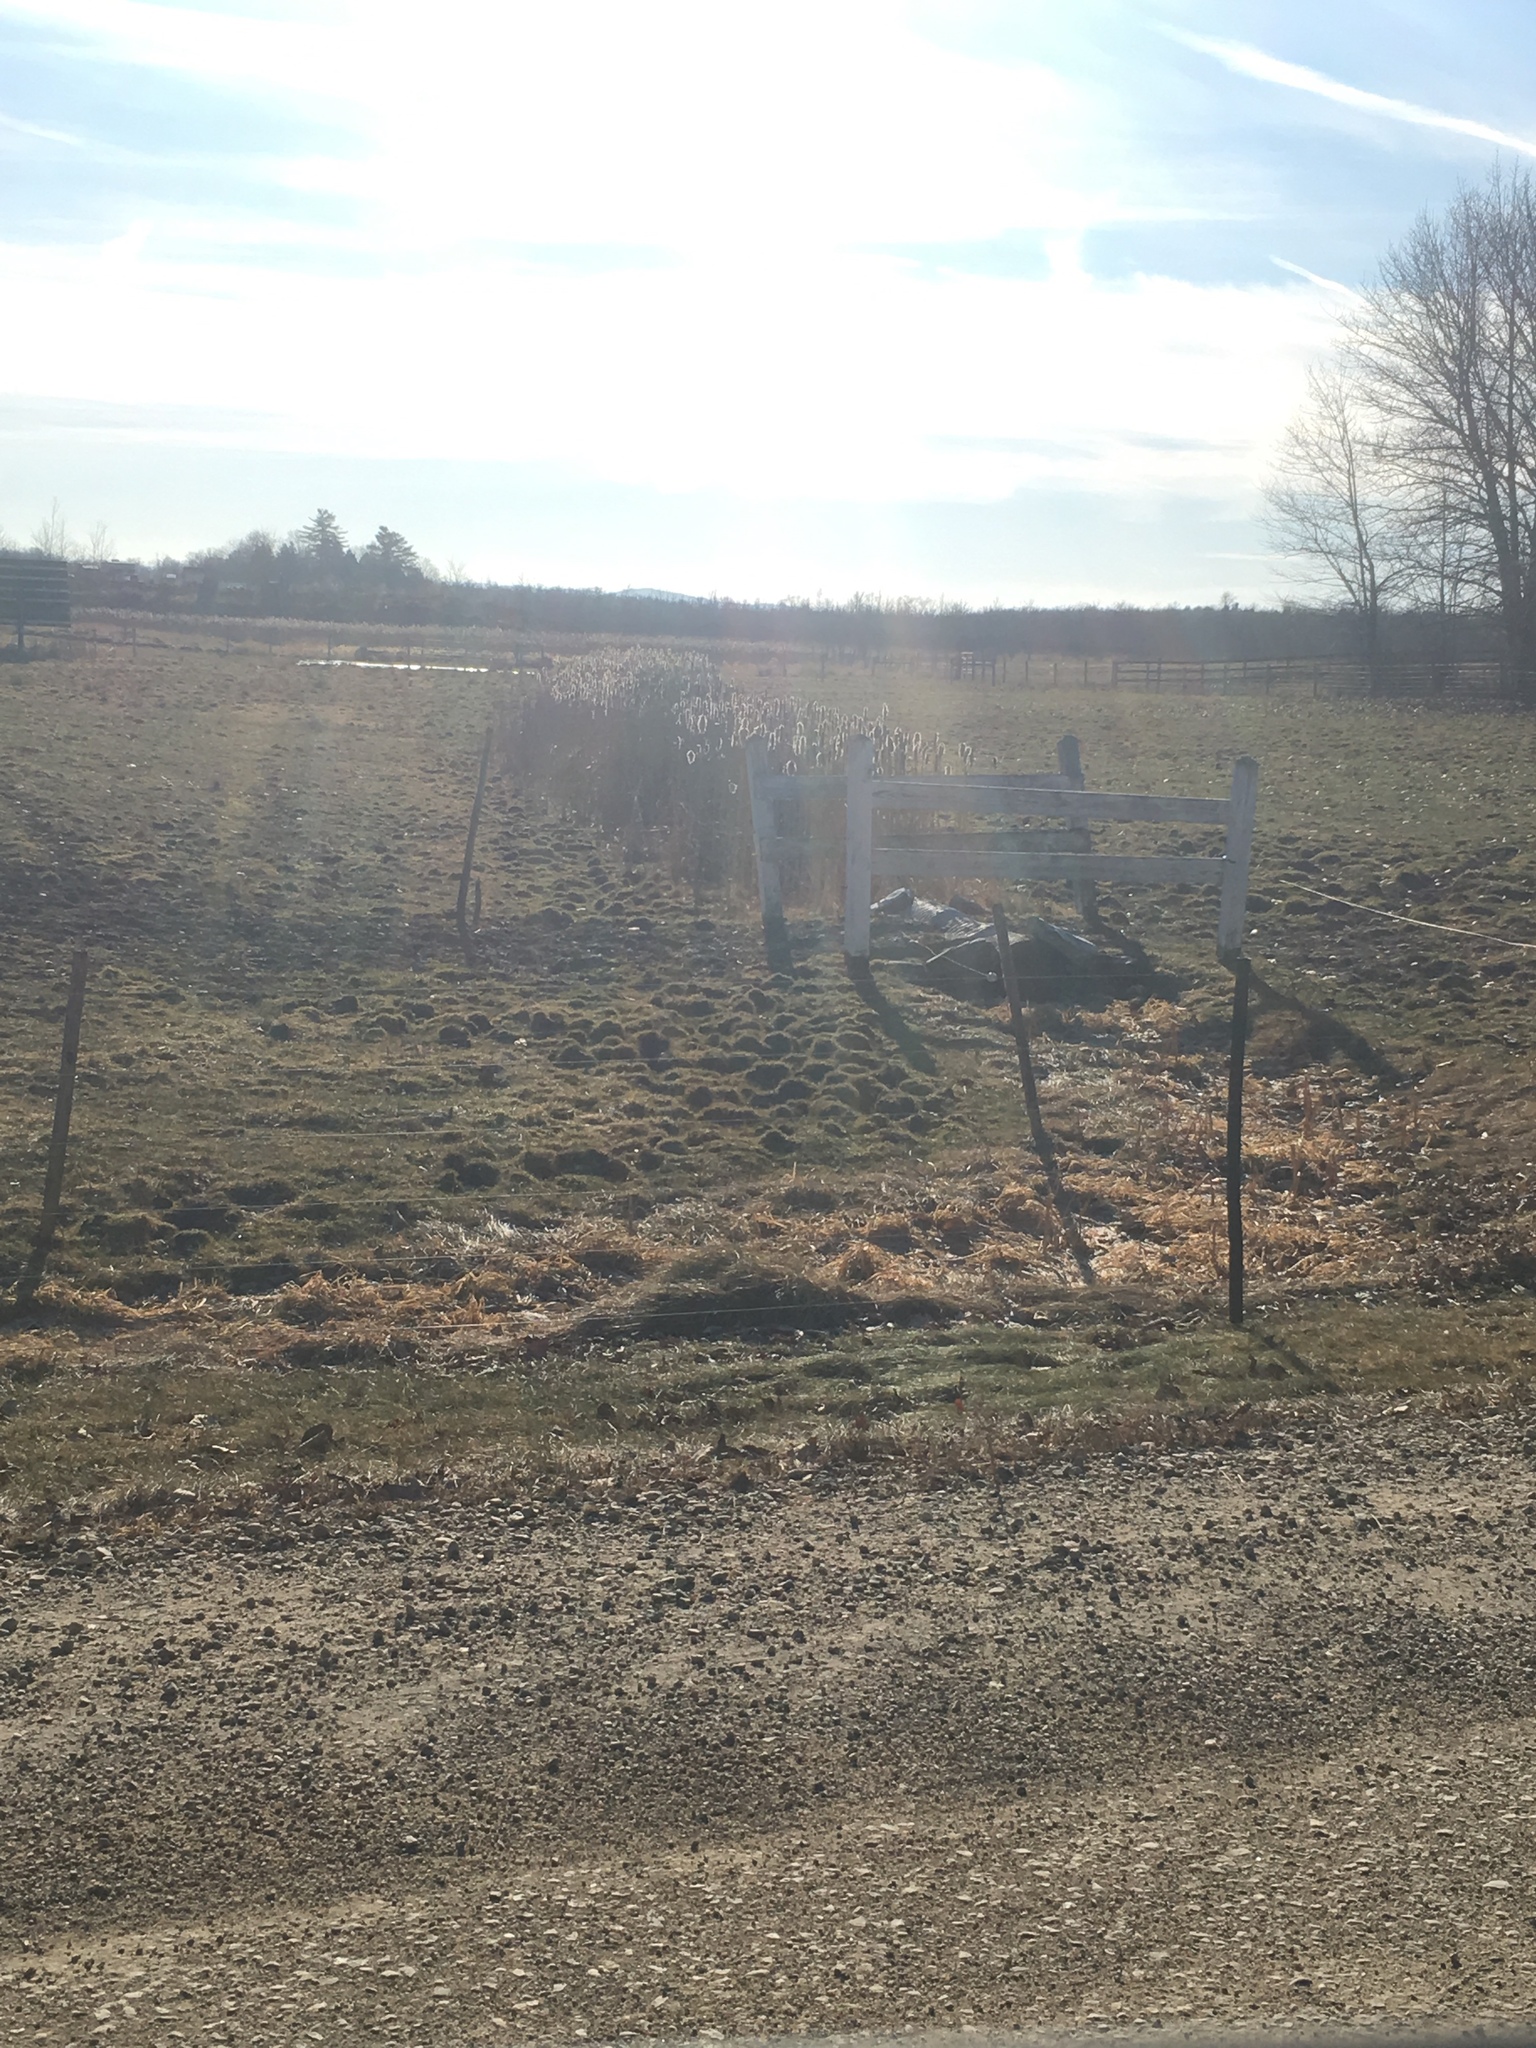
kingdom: Plantae
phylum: Tracheophyta
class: Liliopsida
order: Poales
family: Typhaceae
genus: Typha
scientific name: Typha
